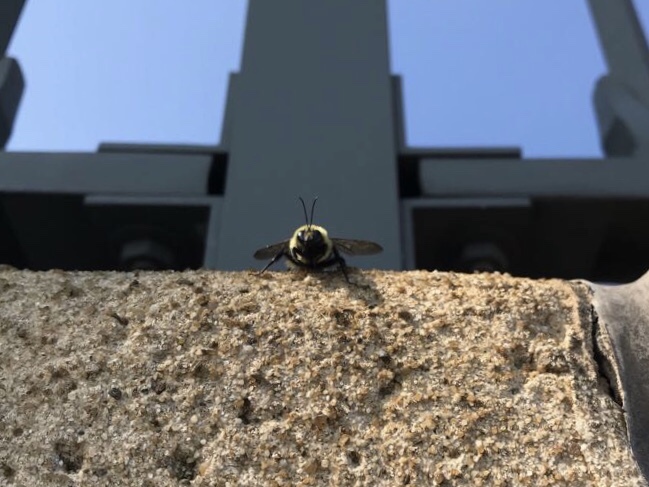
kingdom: Animalia
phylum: Arthropoda
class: Insecta
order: Hymenoptera
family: Apidae
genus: Bombus
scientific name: Bombus griseocollis
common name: Brown-belted bumble bee
